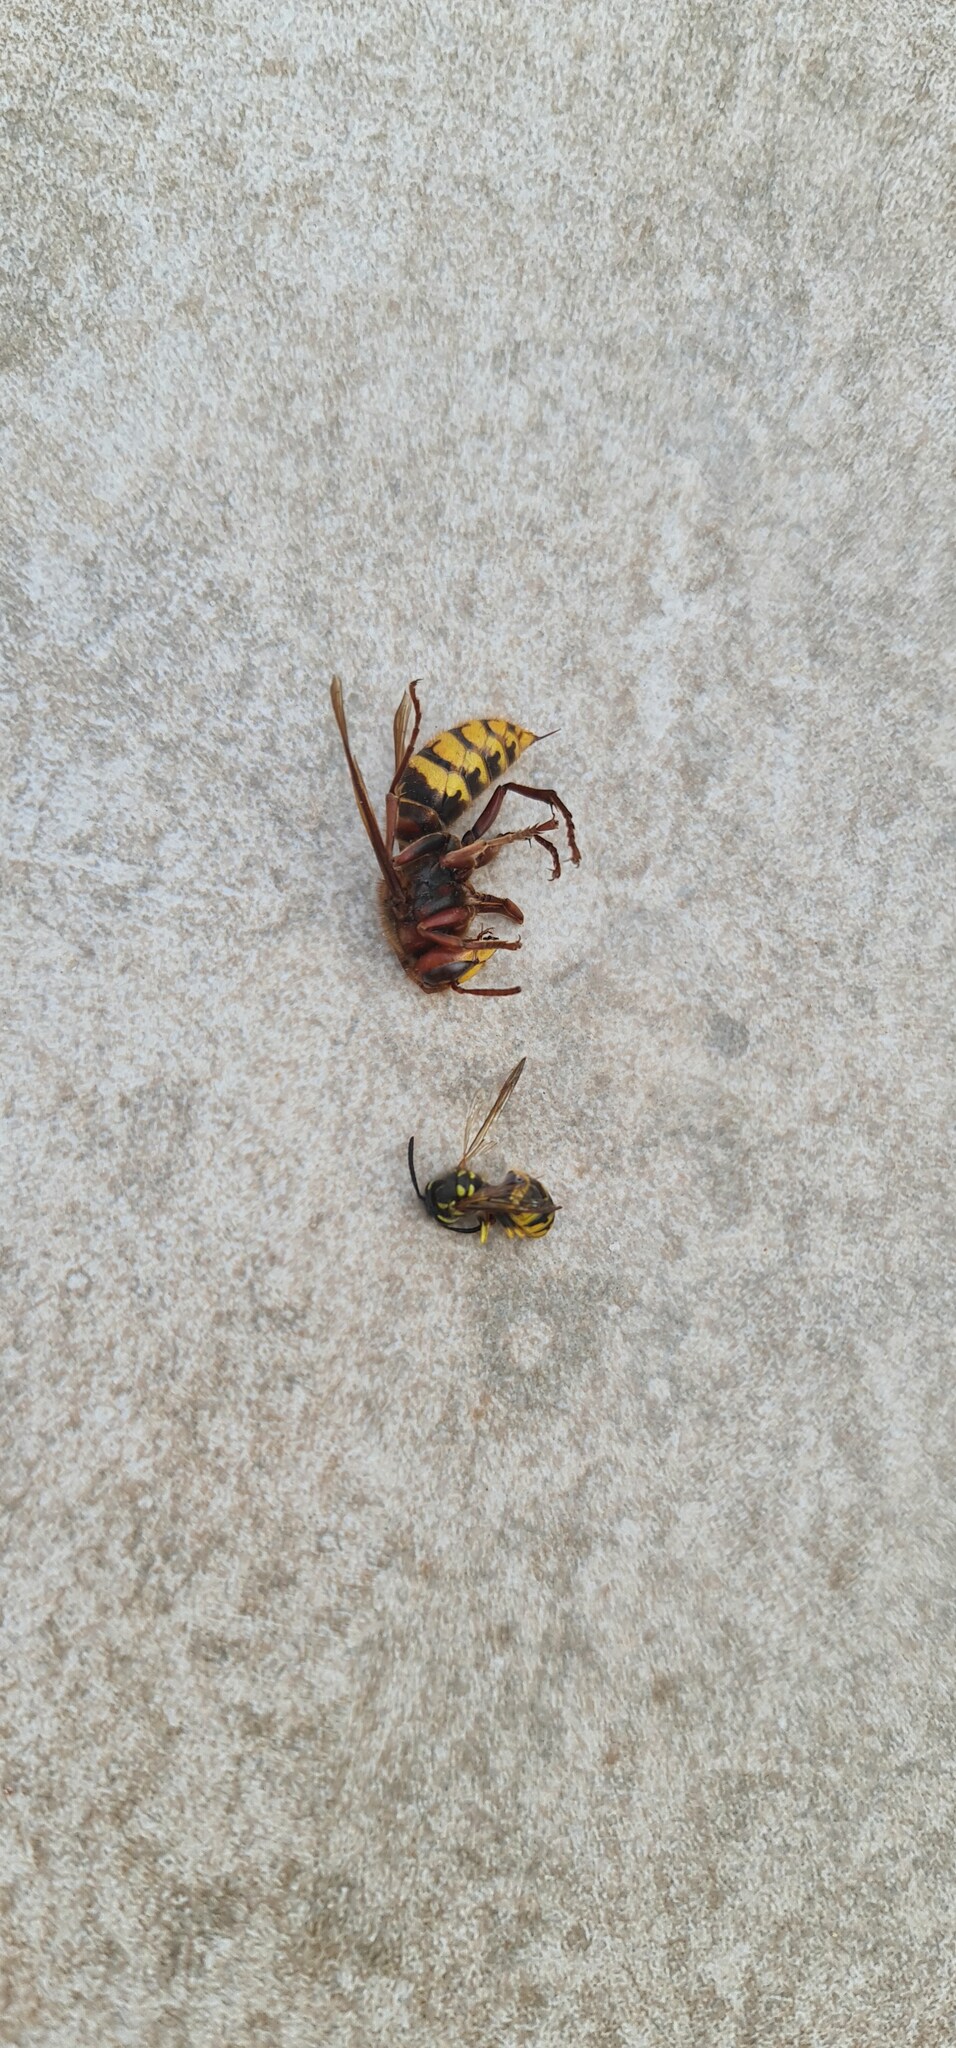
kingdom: Animalia
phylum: Arthropoda
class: Insecta
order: Hymenoptera
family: Vespidae
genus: Vespa
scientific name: Vespa crabro
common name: Hornet
